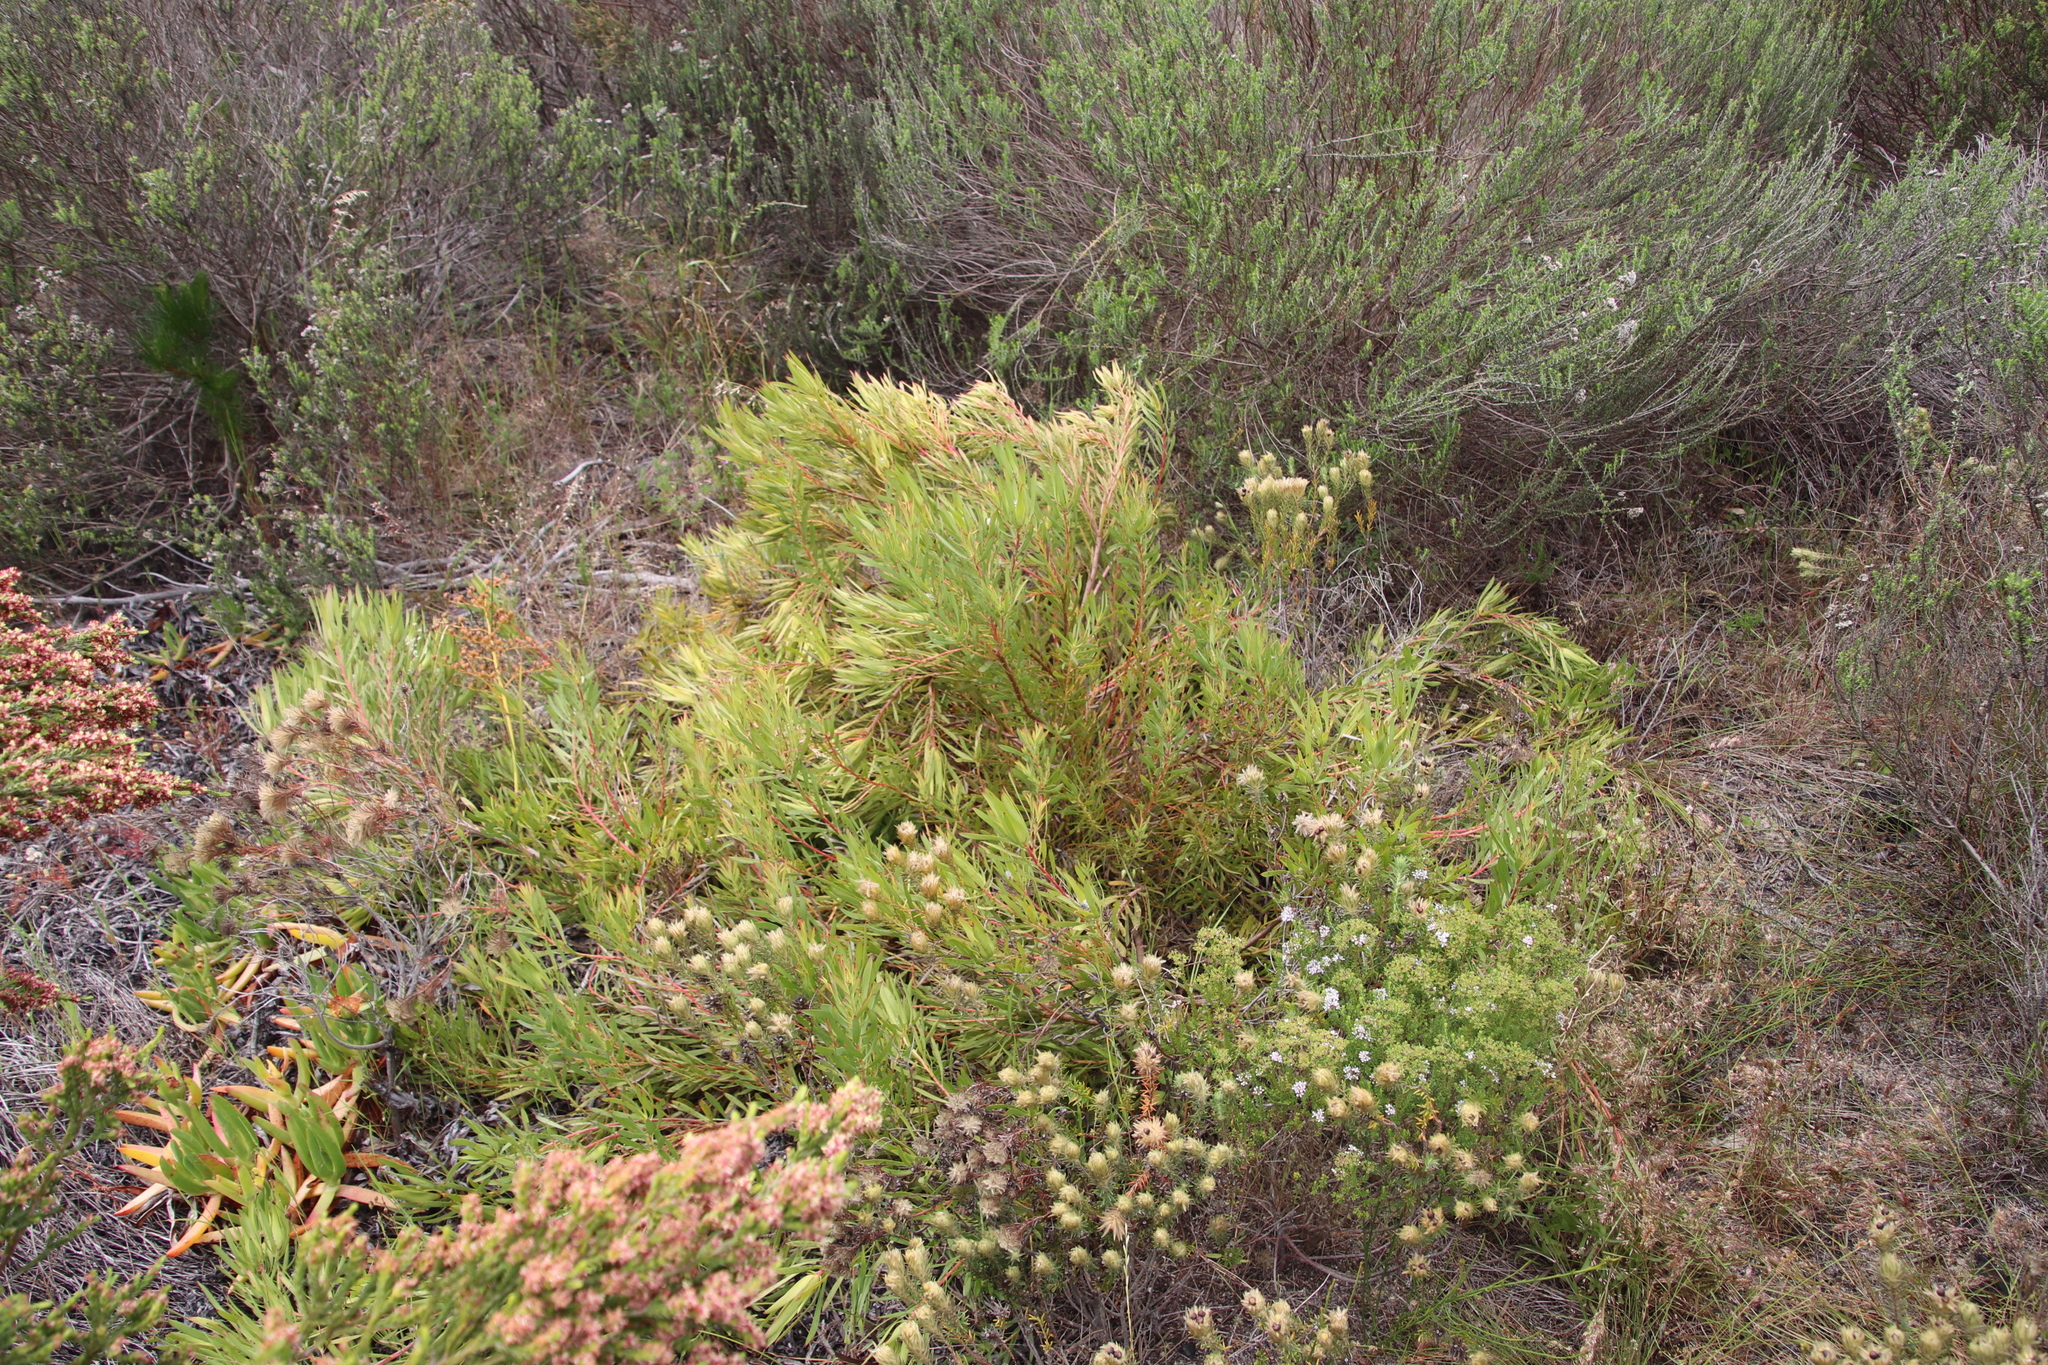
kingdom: Plantae
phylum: Tracheophyta
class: Magnoliopsida
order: Proteales
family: Proteaceae
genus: Leucadendron
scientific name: Leucadendron salignum
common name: Common sunshine conebush
